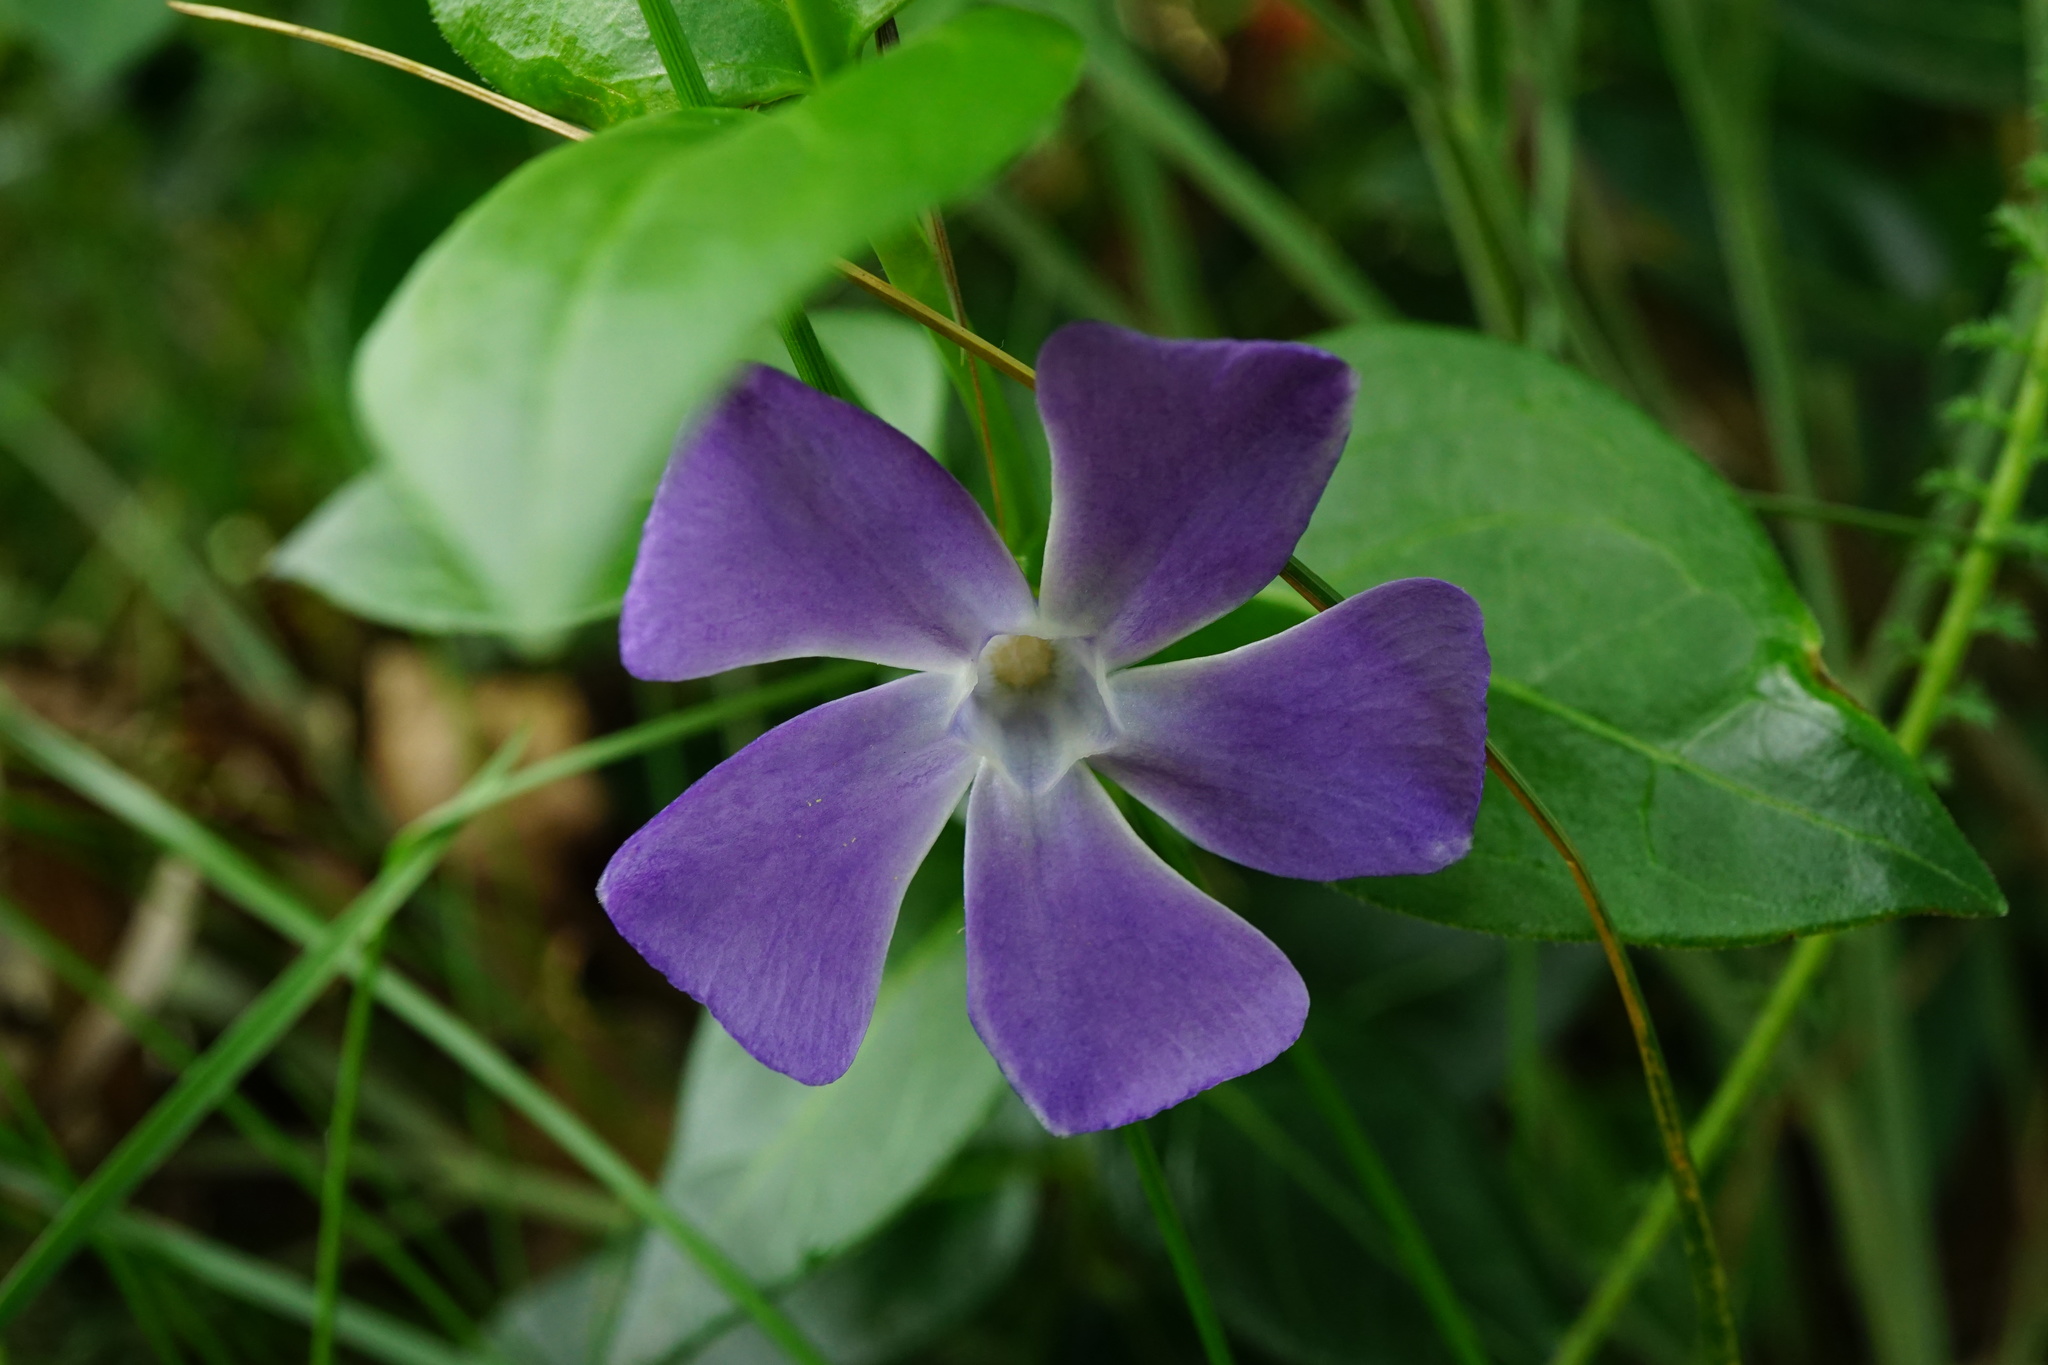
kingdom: Plantae
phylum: Tracheophyta
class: Magnoliopsida
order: Gentianales
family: Apocynaceae
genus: Vinca
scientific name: Vinca major
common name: Greater periwinkle
